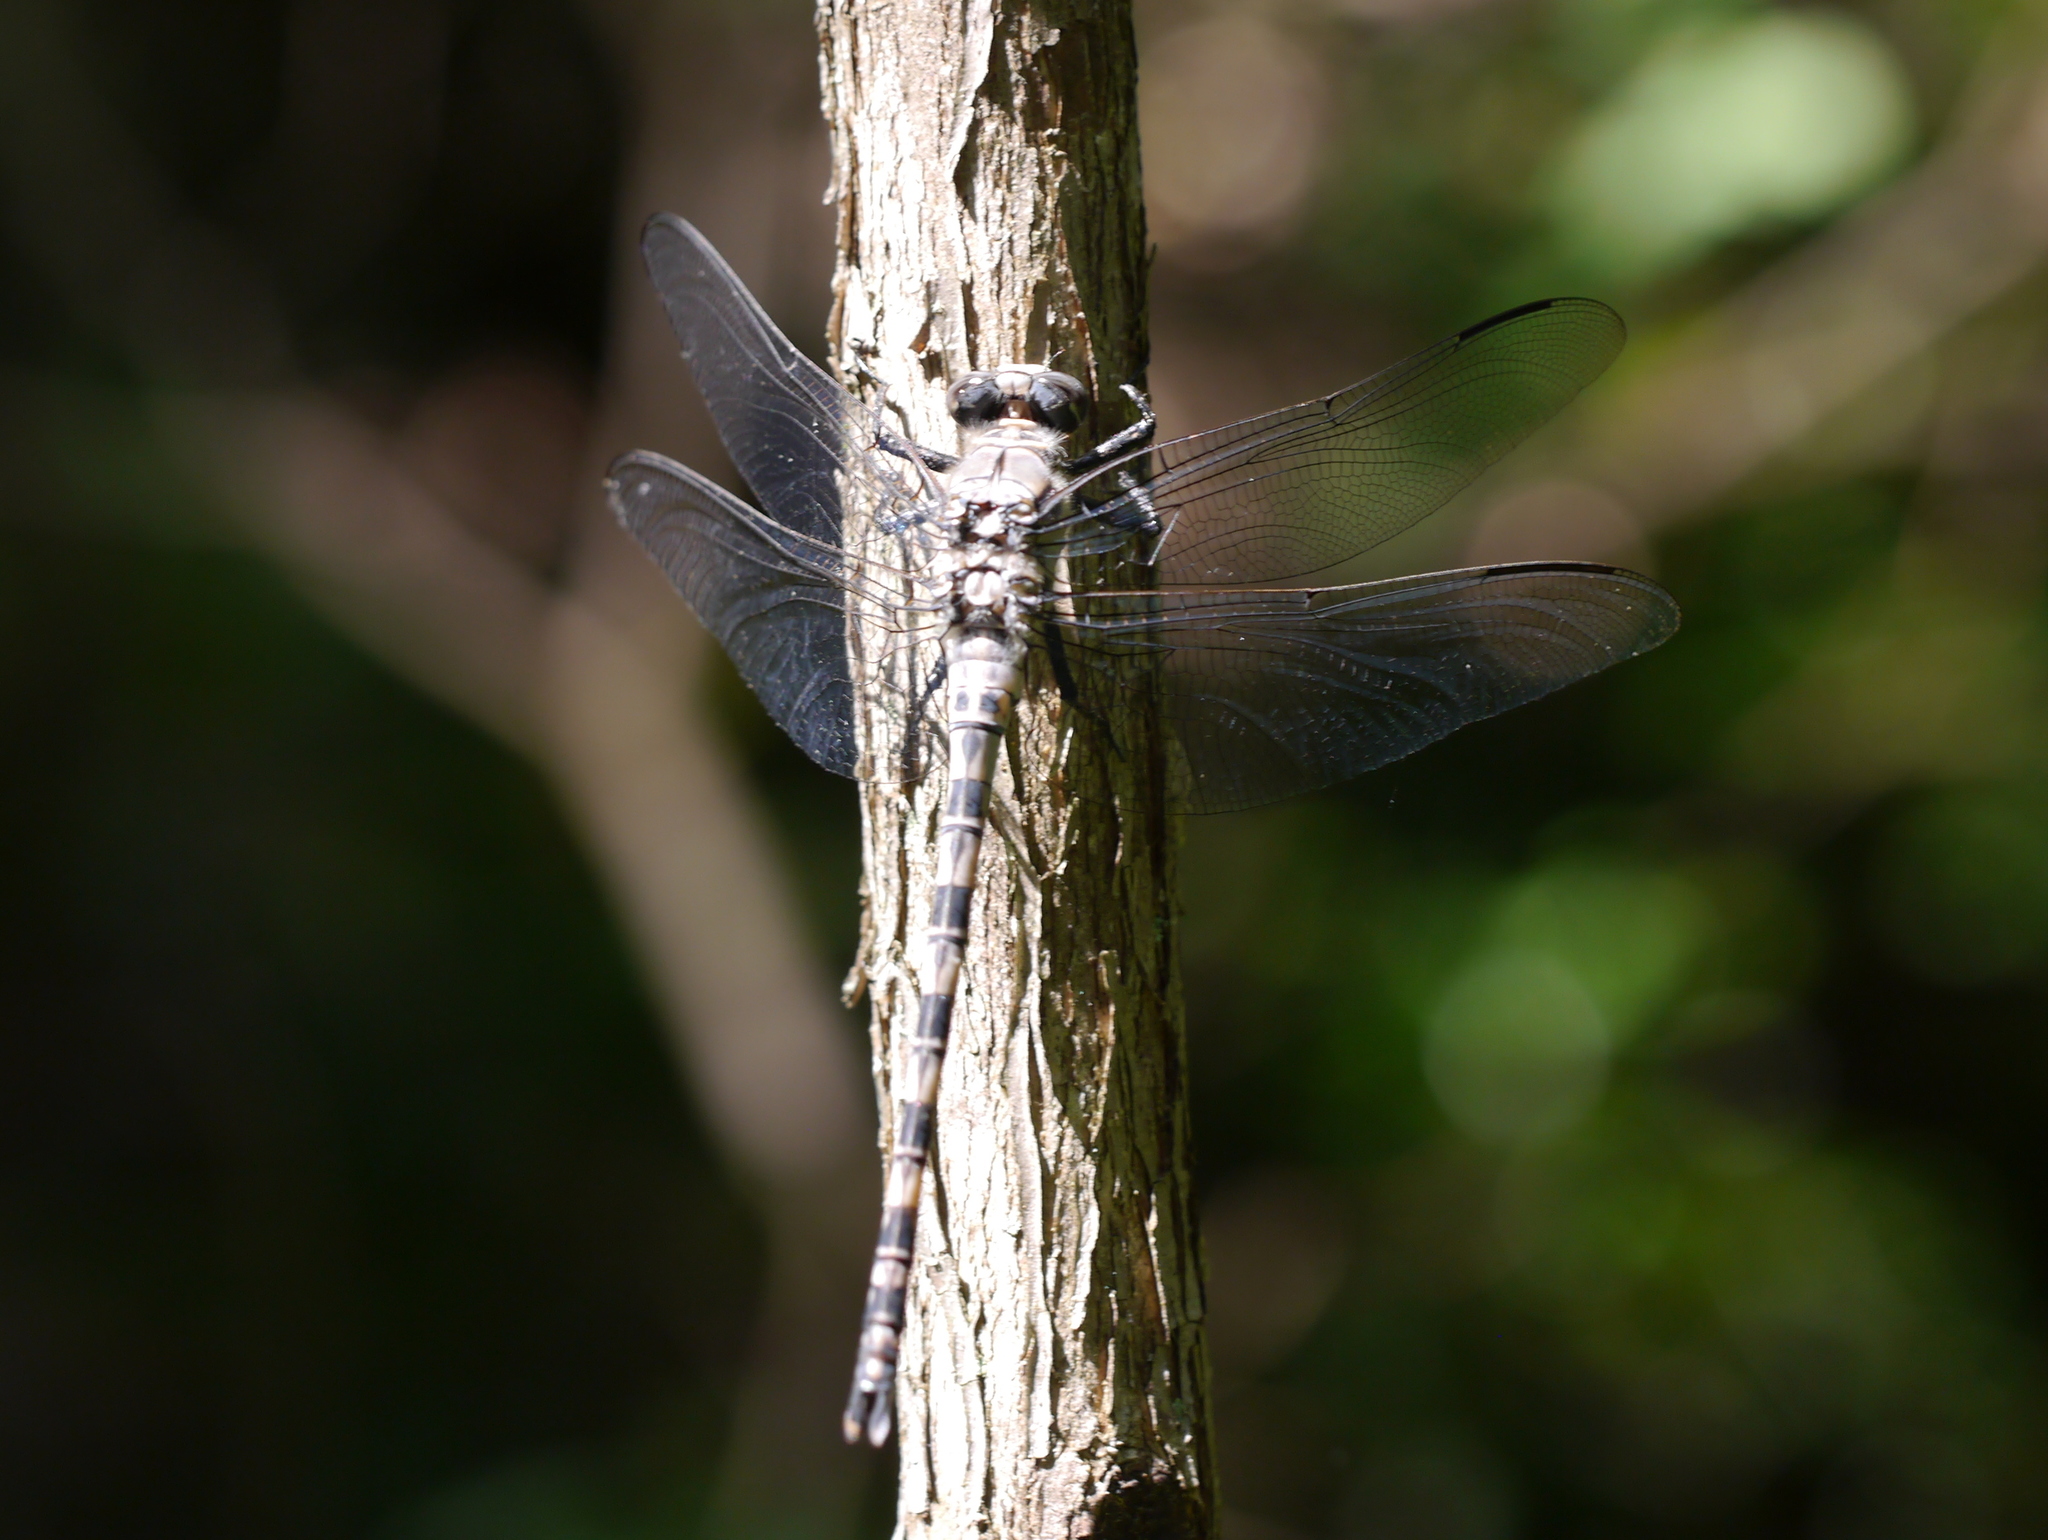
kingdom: Animalia
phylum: Arthropoda
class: Insecta
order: Odonata
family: Petaluridae
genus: Tachopteryx
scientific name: Tachopteryx thoreyi
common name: Gray petaltail
